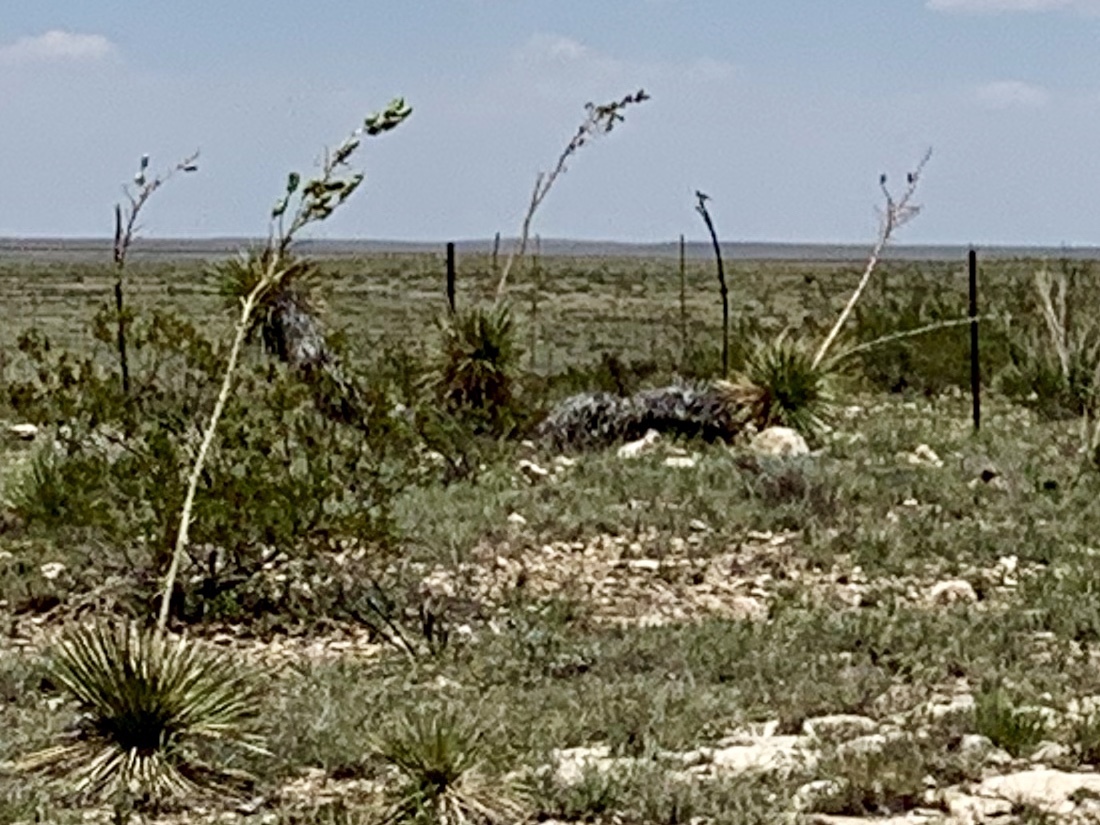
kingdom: Plantae
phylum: Tracheophyta
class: Liliopsida
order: Asparagales
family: Asparagaceae
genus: Yucca
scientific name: Yucca elata
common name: Palmella
